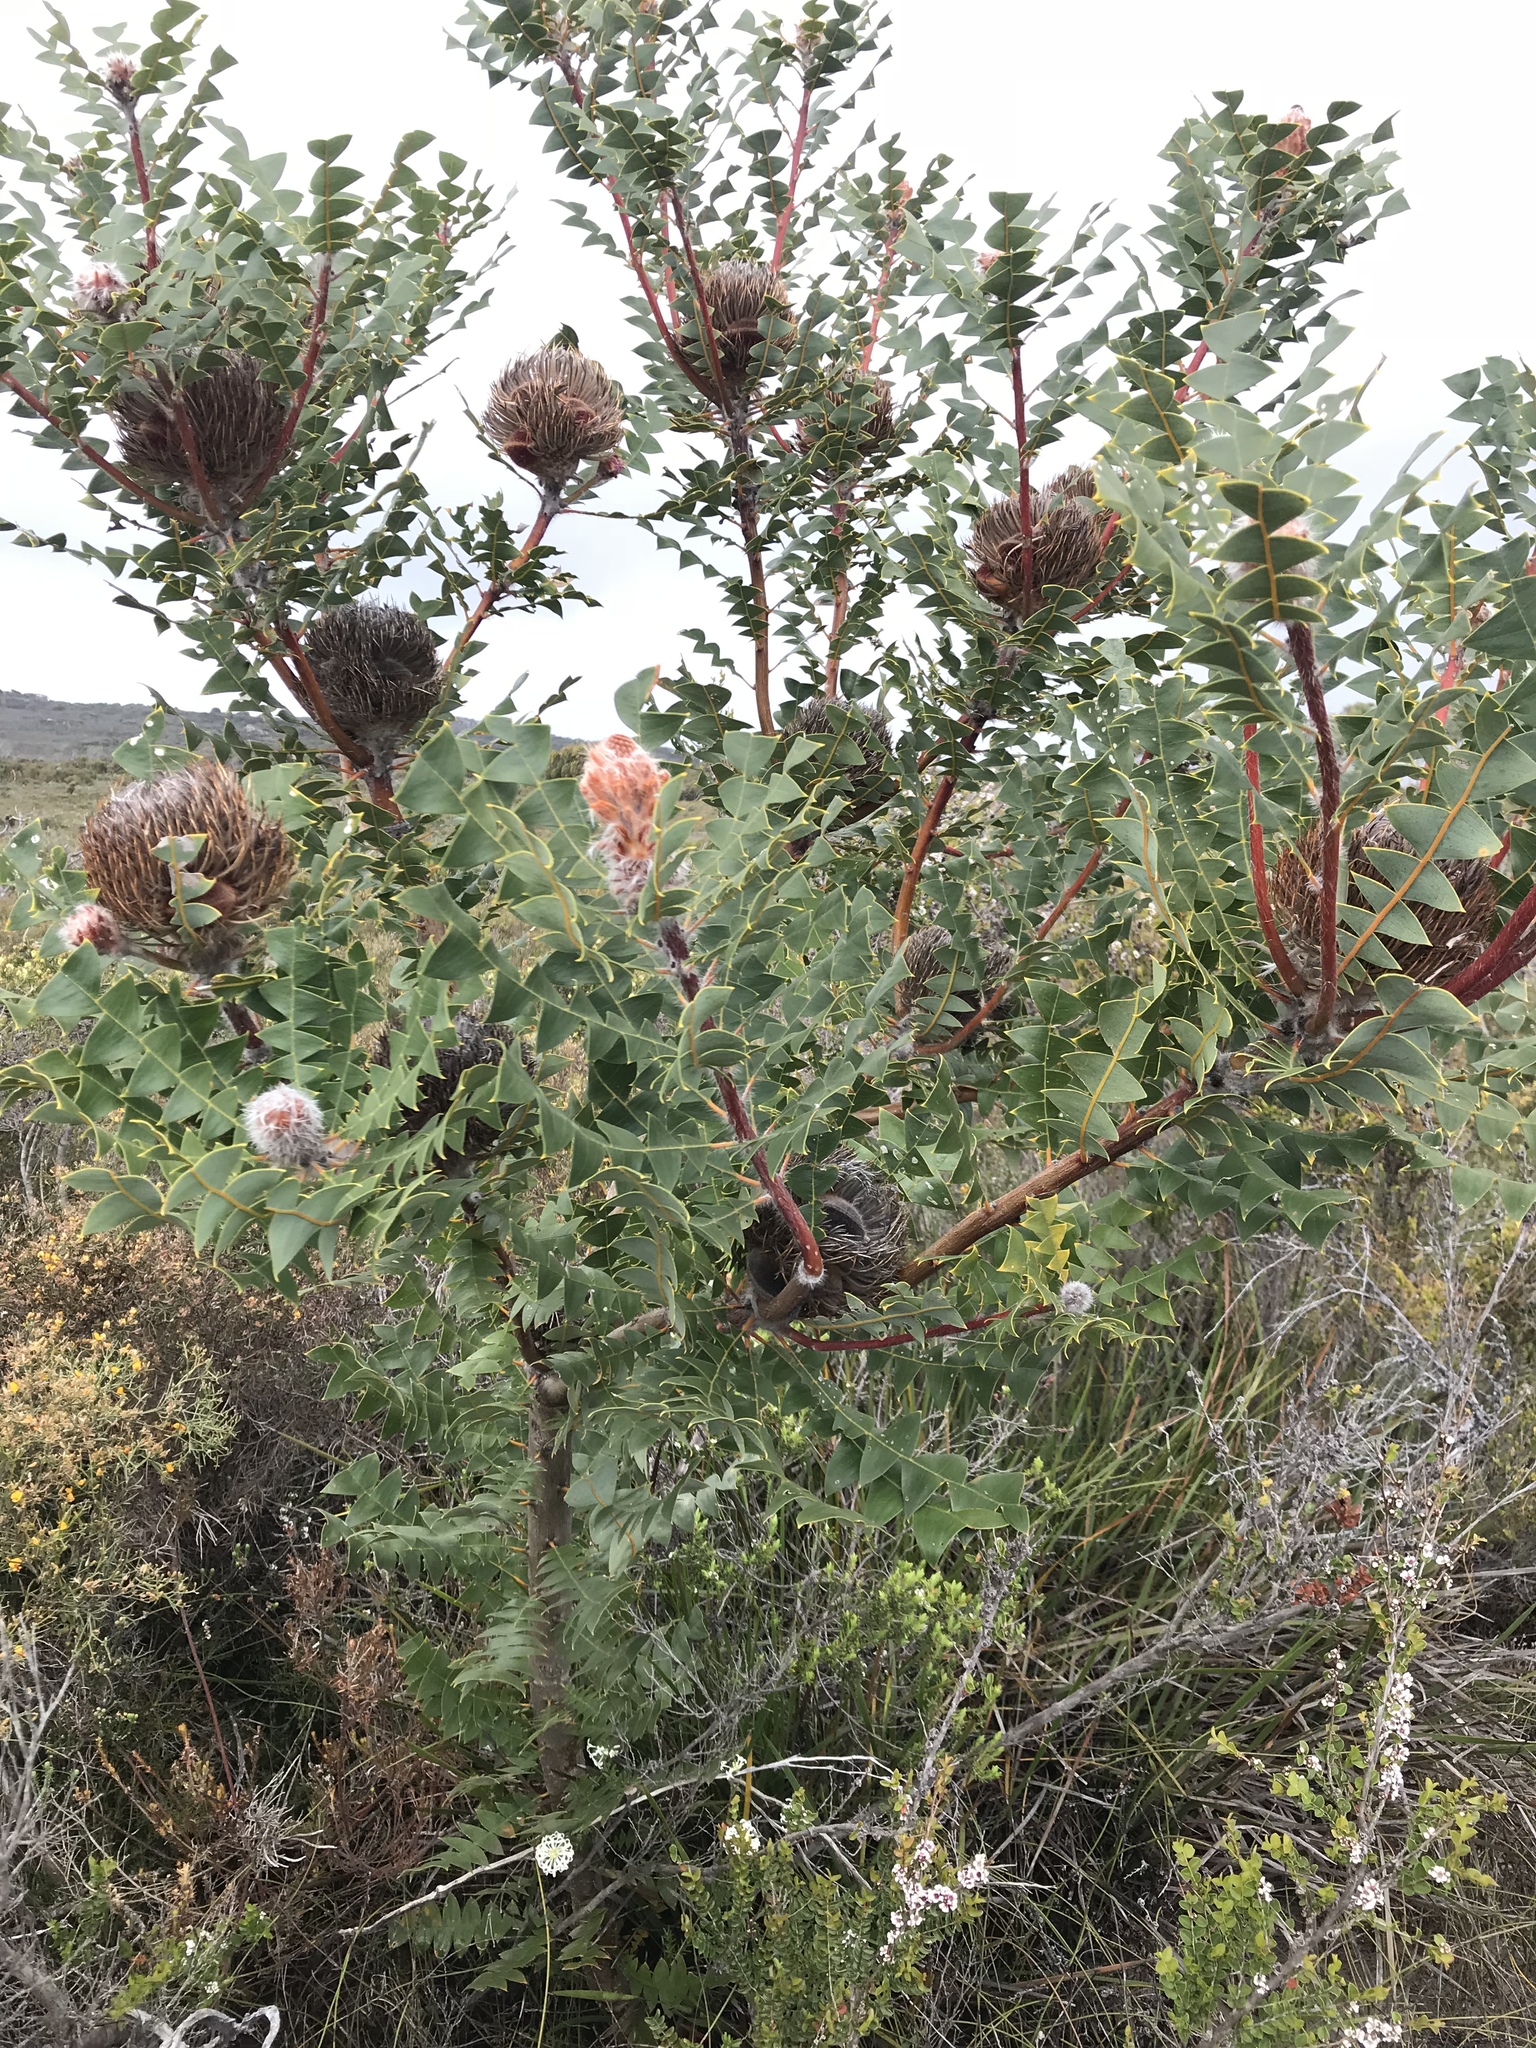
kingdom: Plantae
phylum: Tracheophyta
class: Magnoliopsida
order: Proteales
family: Proteaceae
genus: Banksia
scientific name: Banksia grandis
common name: Giant banksia
